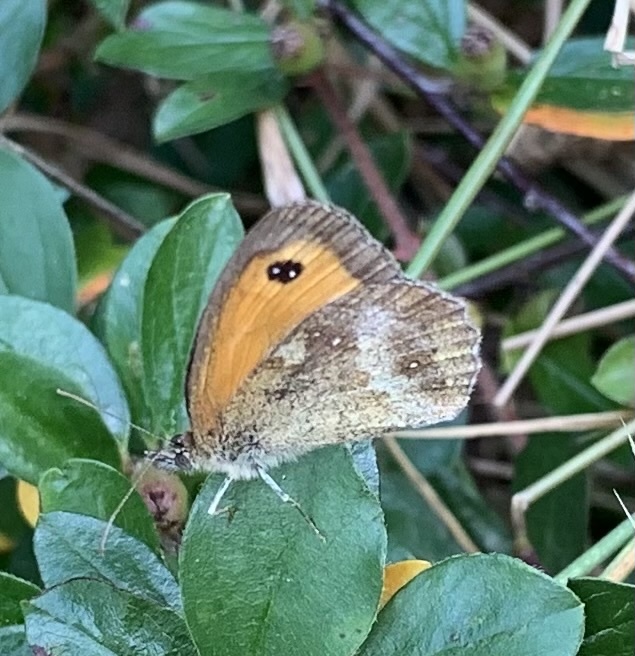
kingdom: Animalia
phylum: Arthropoda
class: Insecta
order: Lepidoptera
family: Nymphalidae
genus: Pyronia
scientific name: Pyronia tithonus
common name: Gatekeeper
